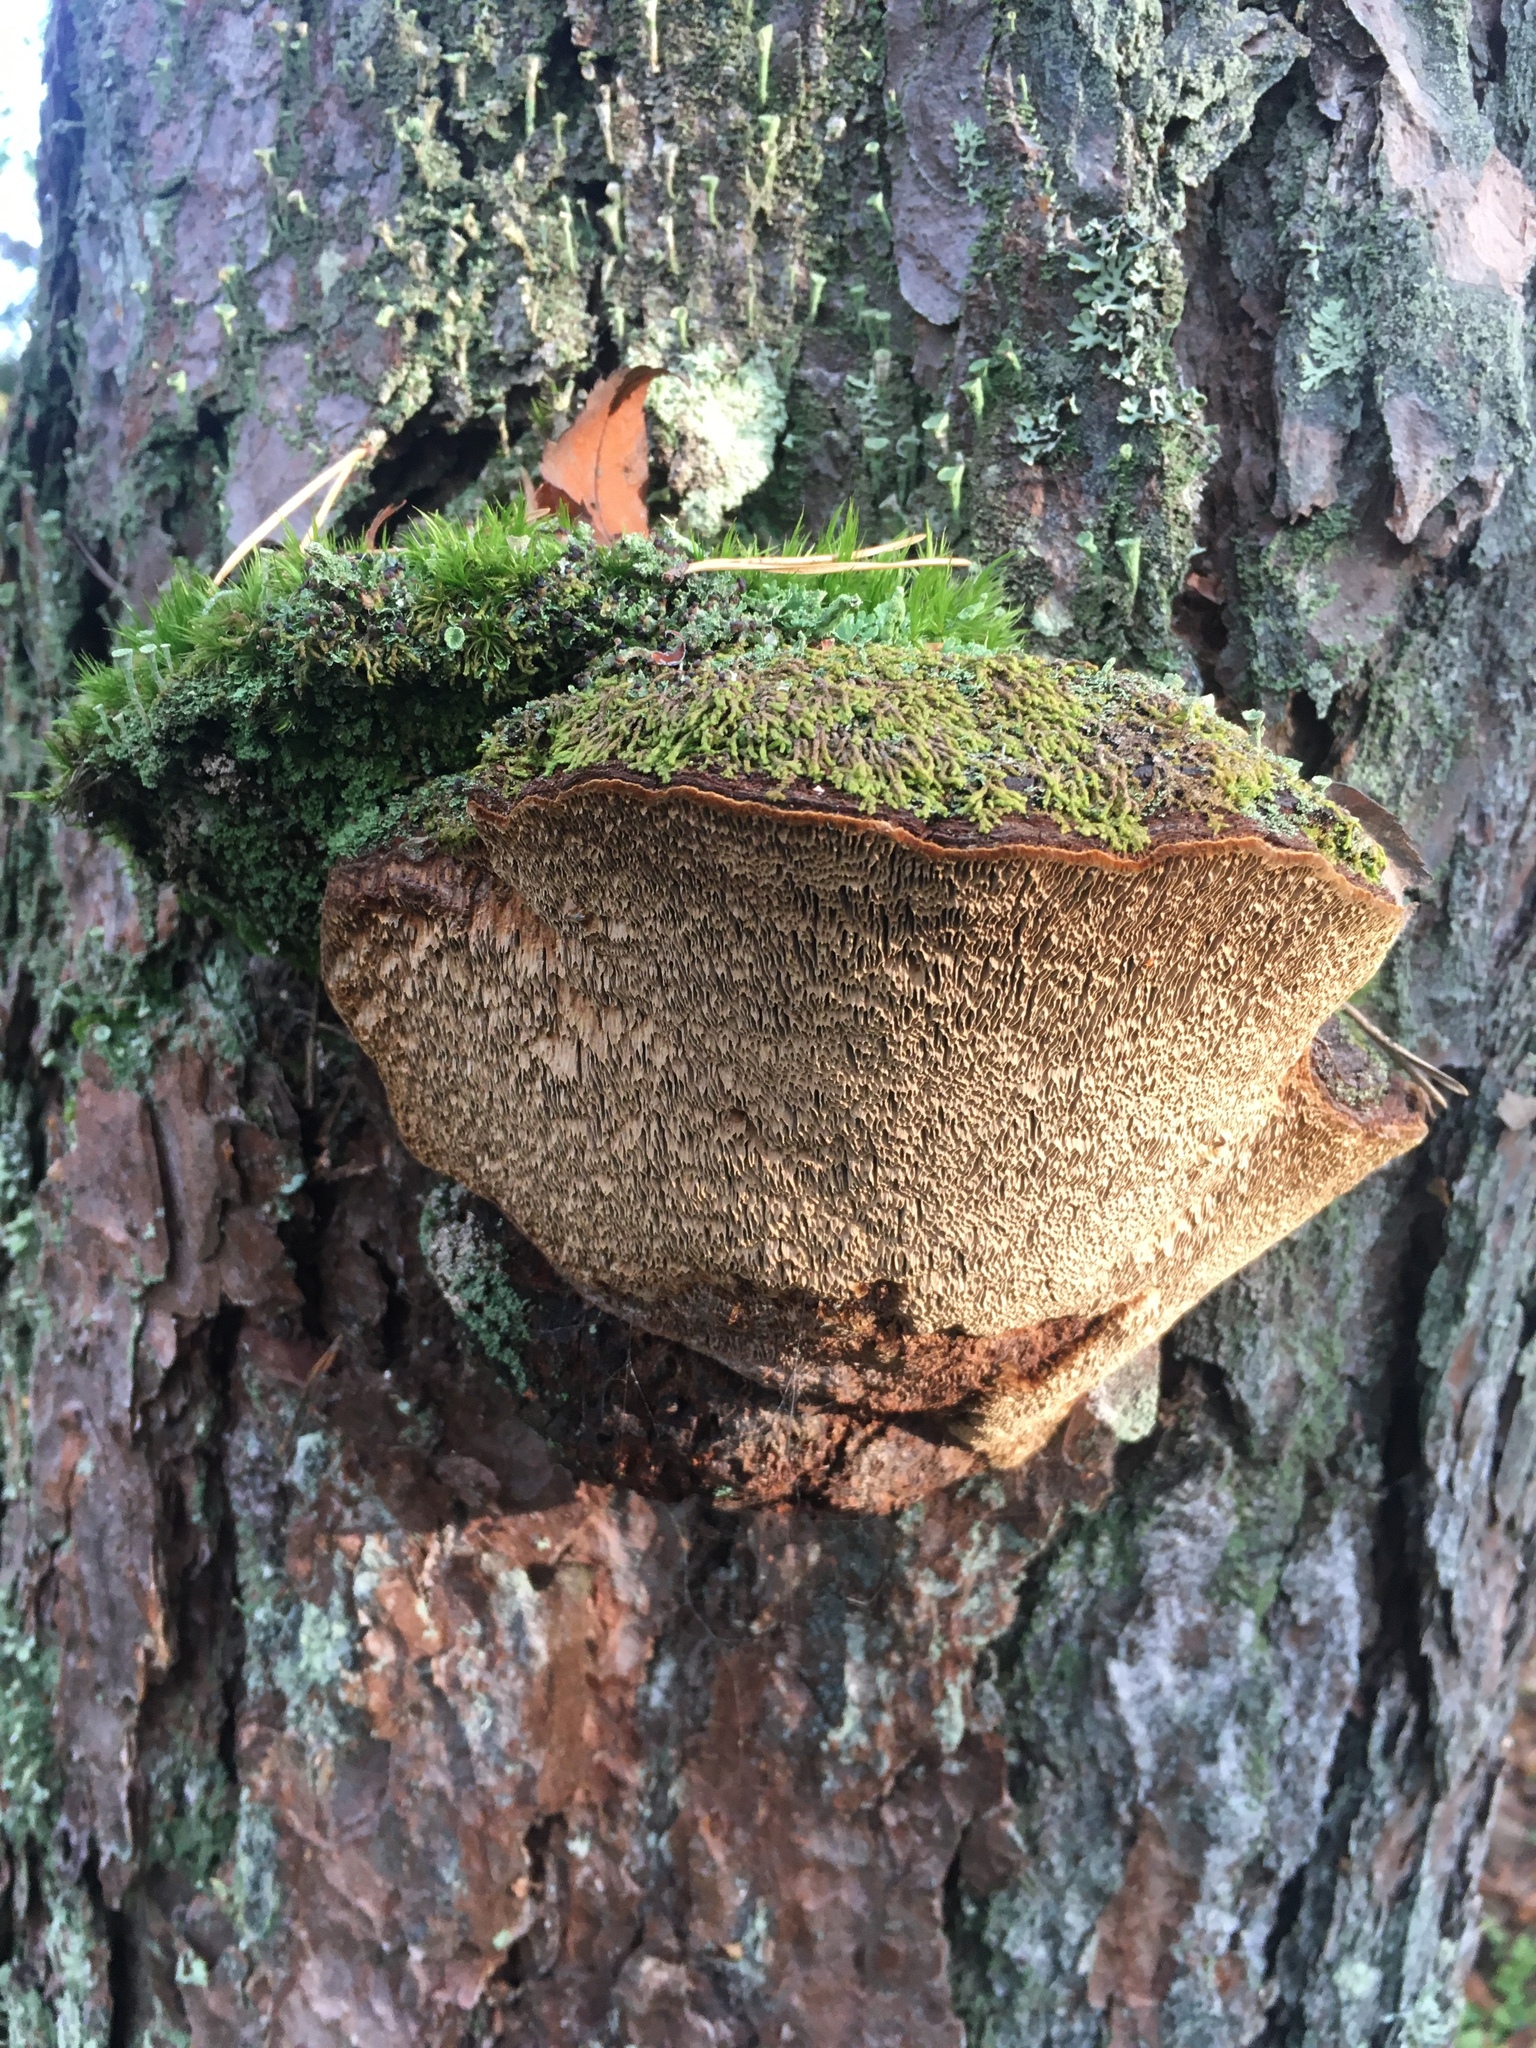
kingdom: Fungi
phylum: Basidiomycota
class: Agaricomycetes
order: Hymenochaetales
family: Hymenochaetaceae
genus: Porodaedalea
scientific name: Porodaedalea pini
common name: Pine bracket
